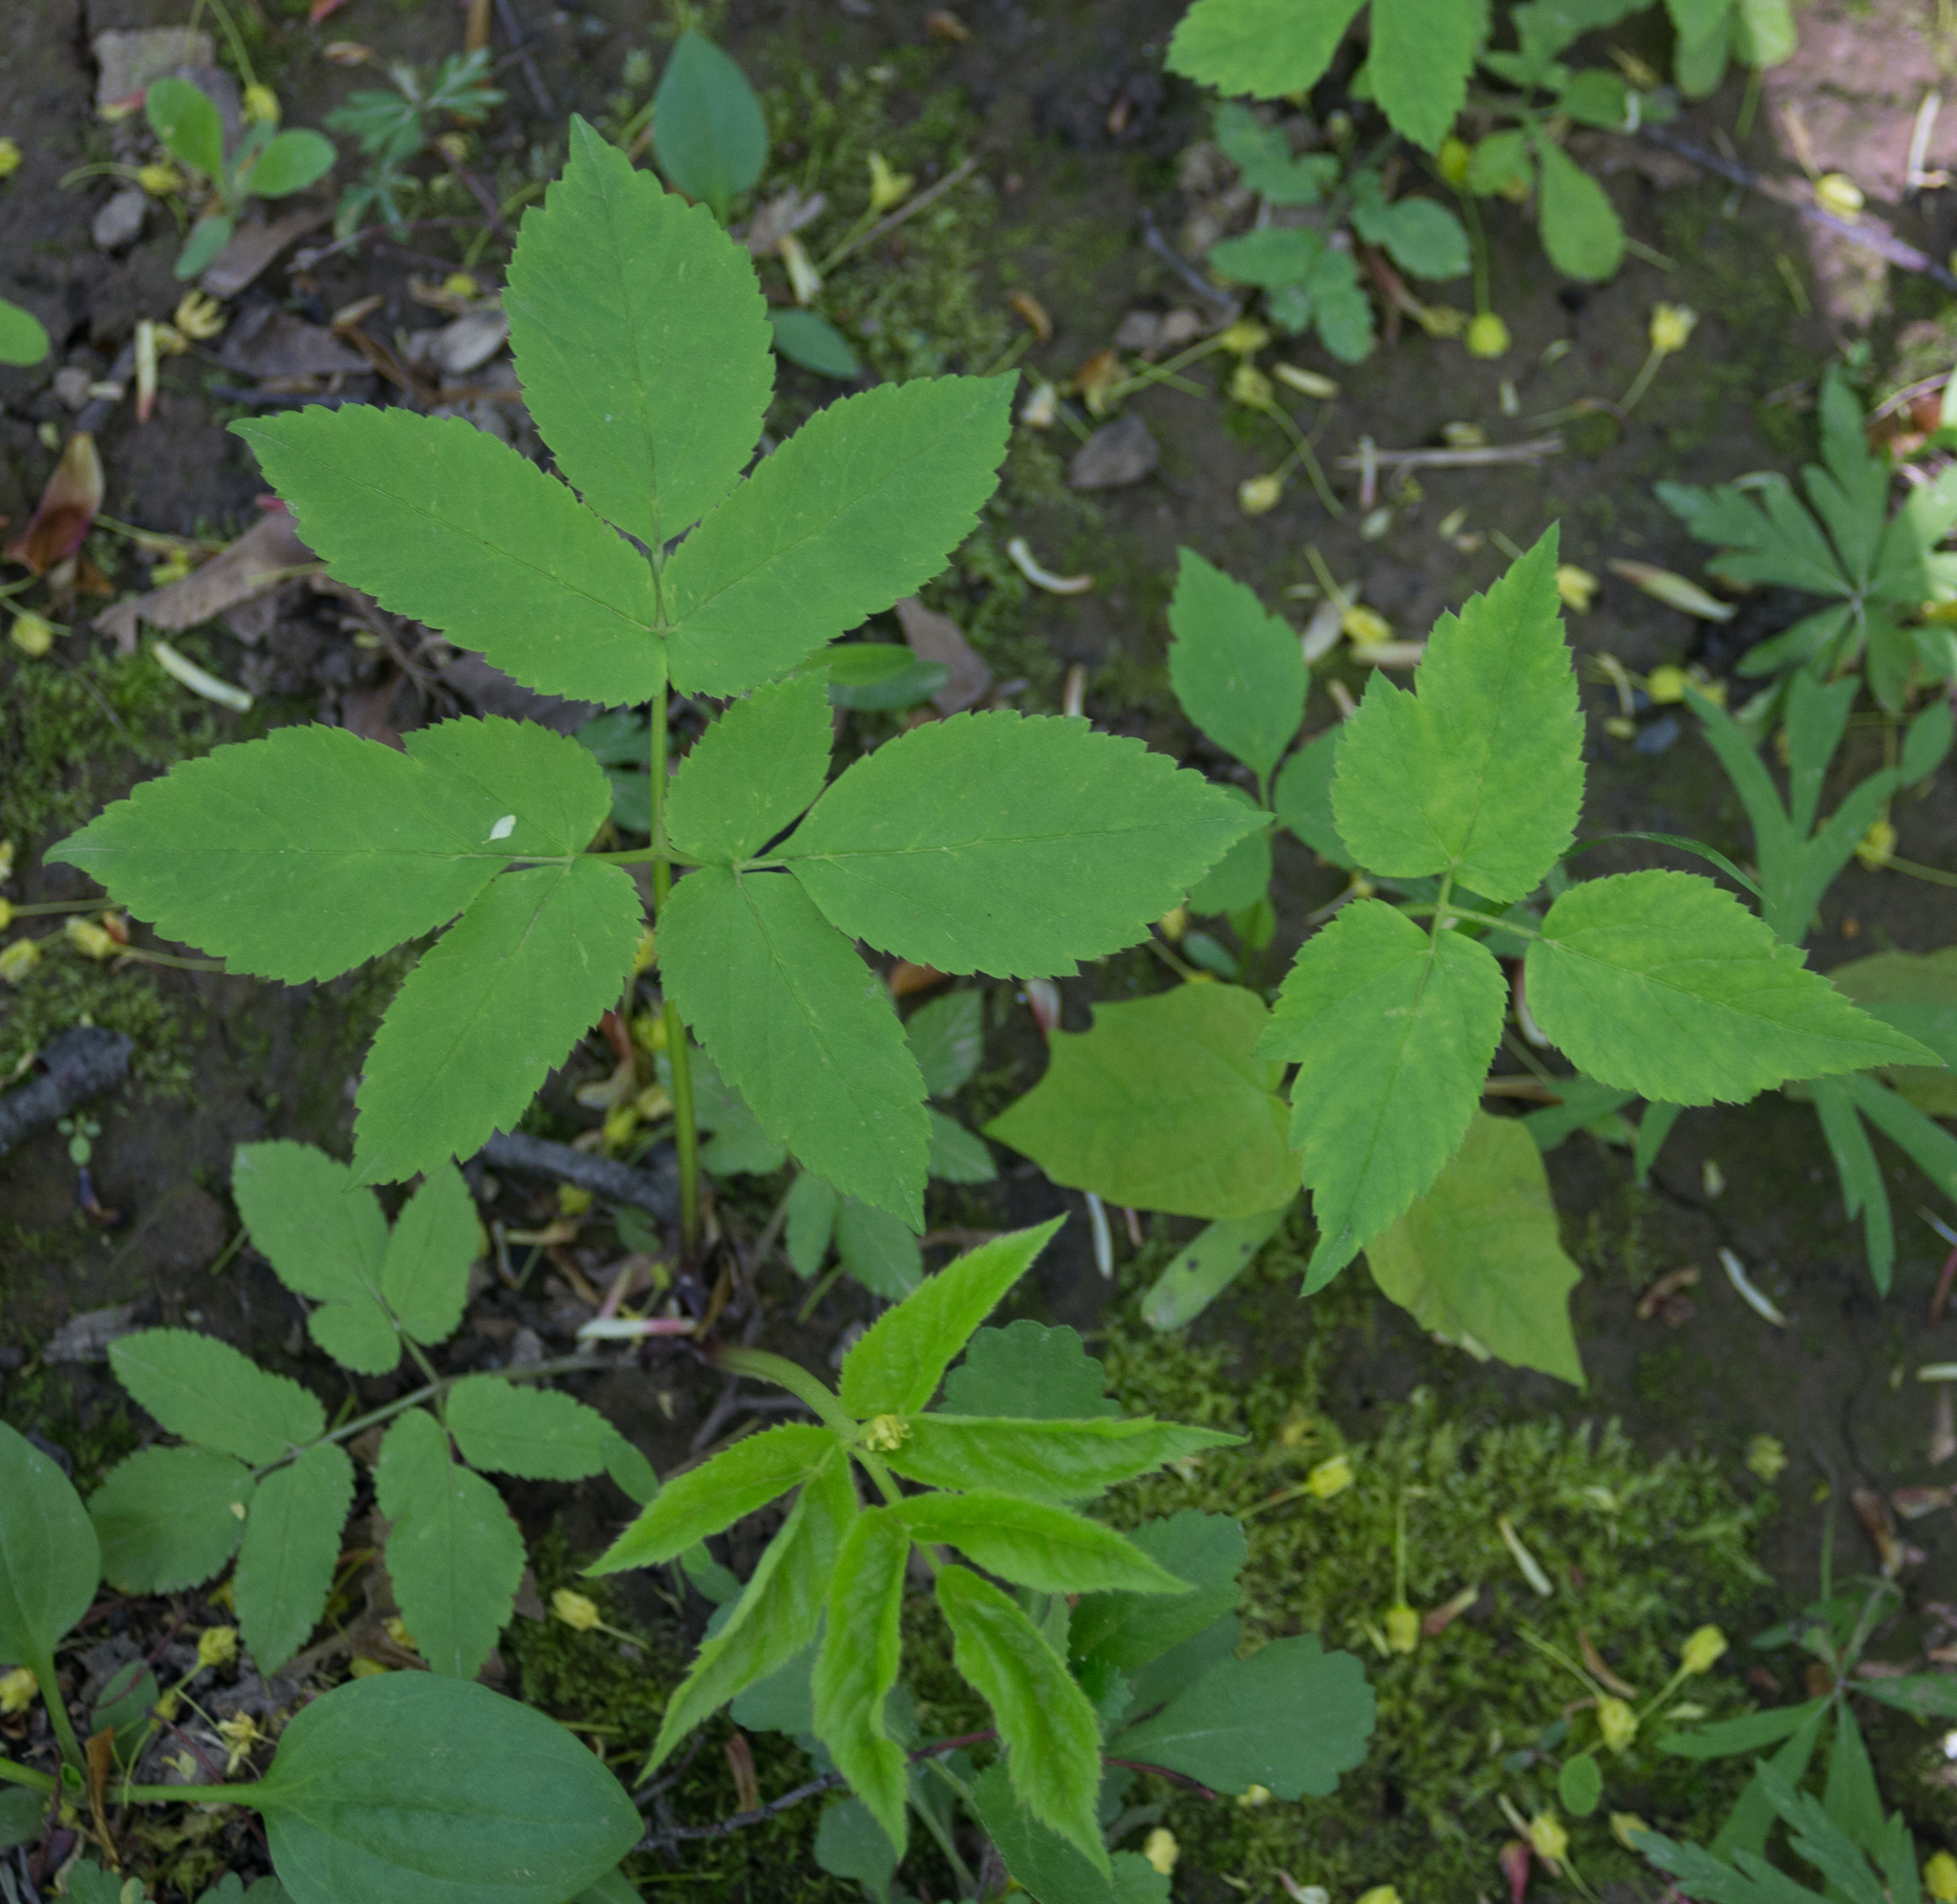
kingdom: Plantae
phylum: Tracheophyta
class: Magnoliopsida
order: Apiales
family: Apiaceae
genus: Aegopodium
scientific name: Aegopodium podagraria
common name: Ground-elder
